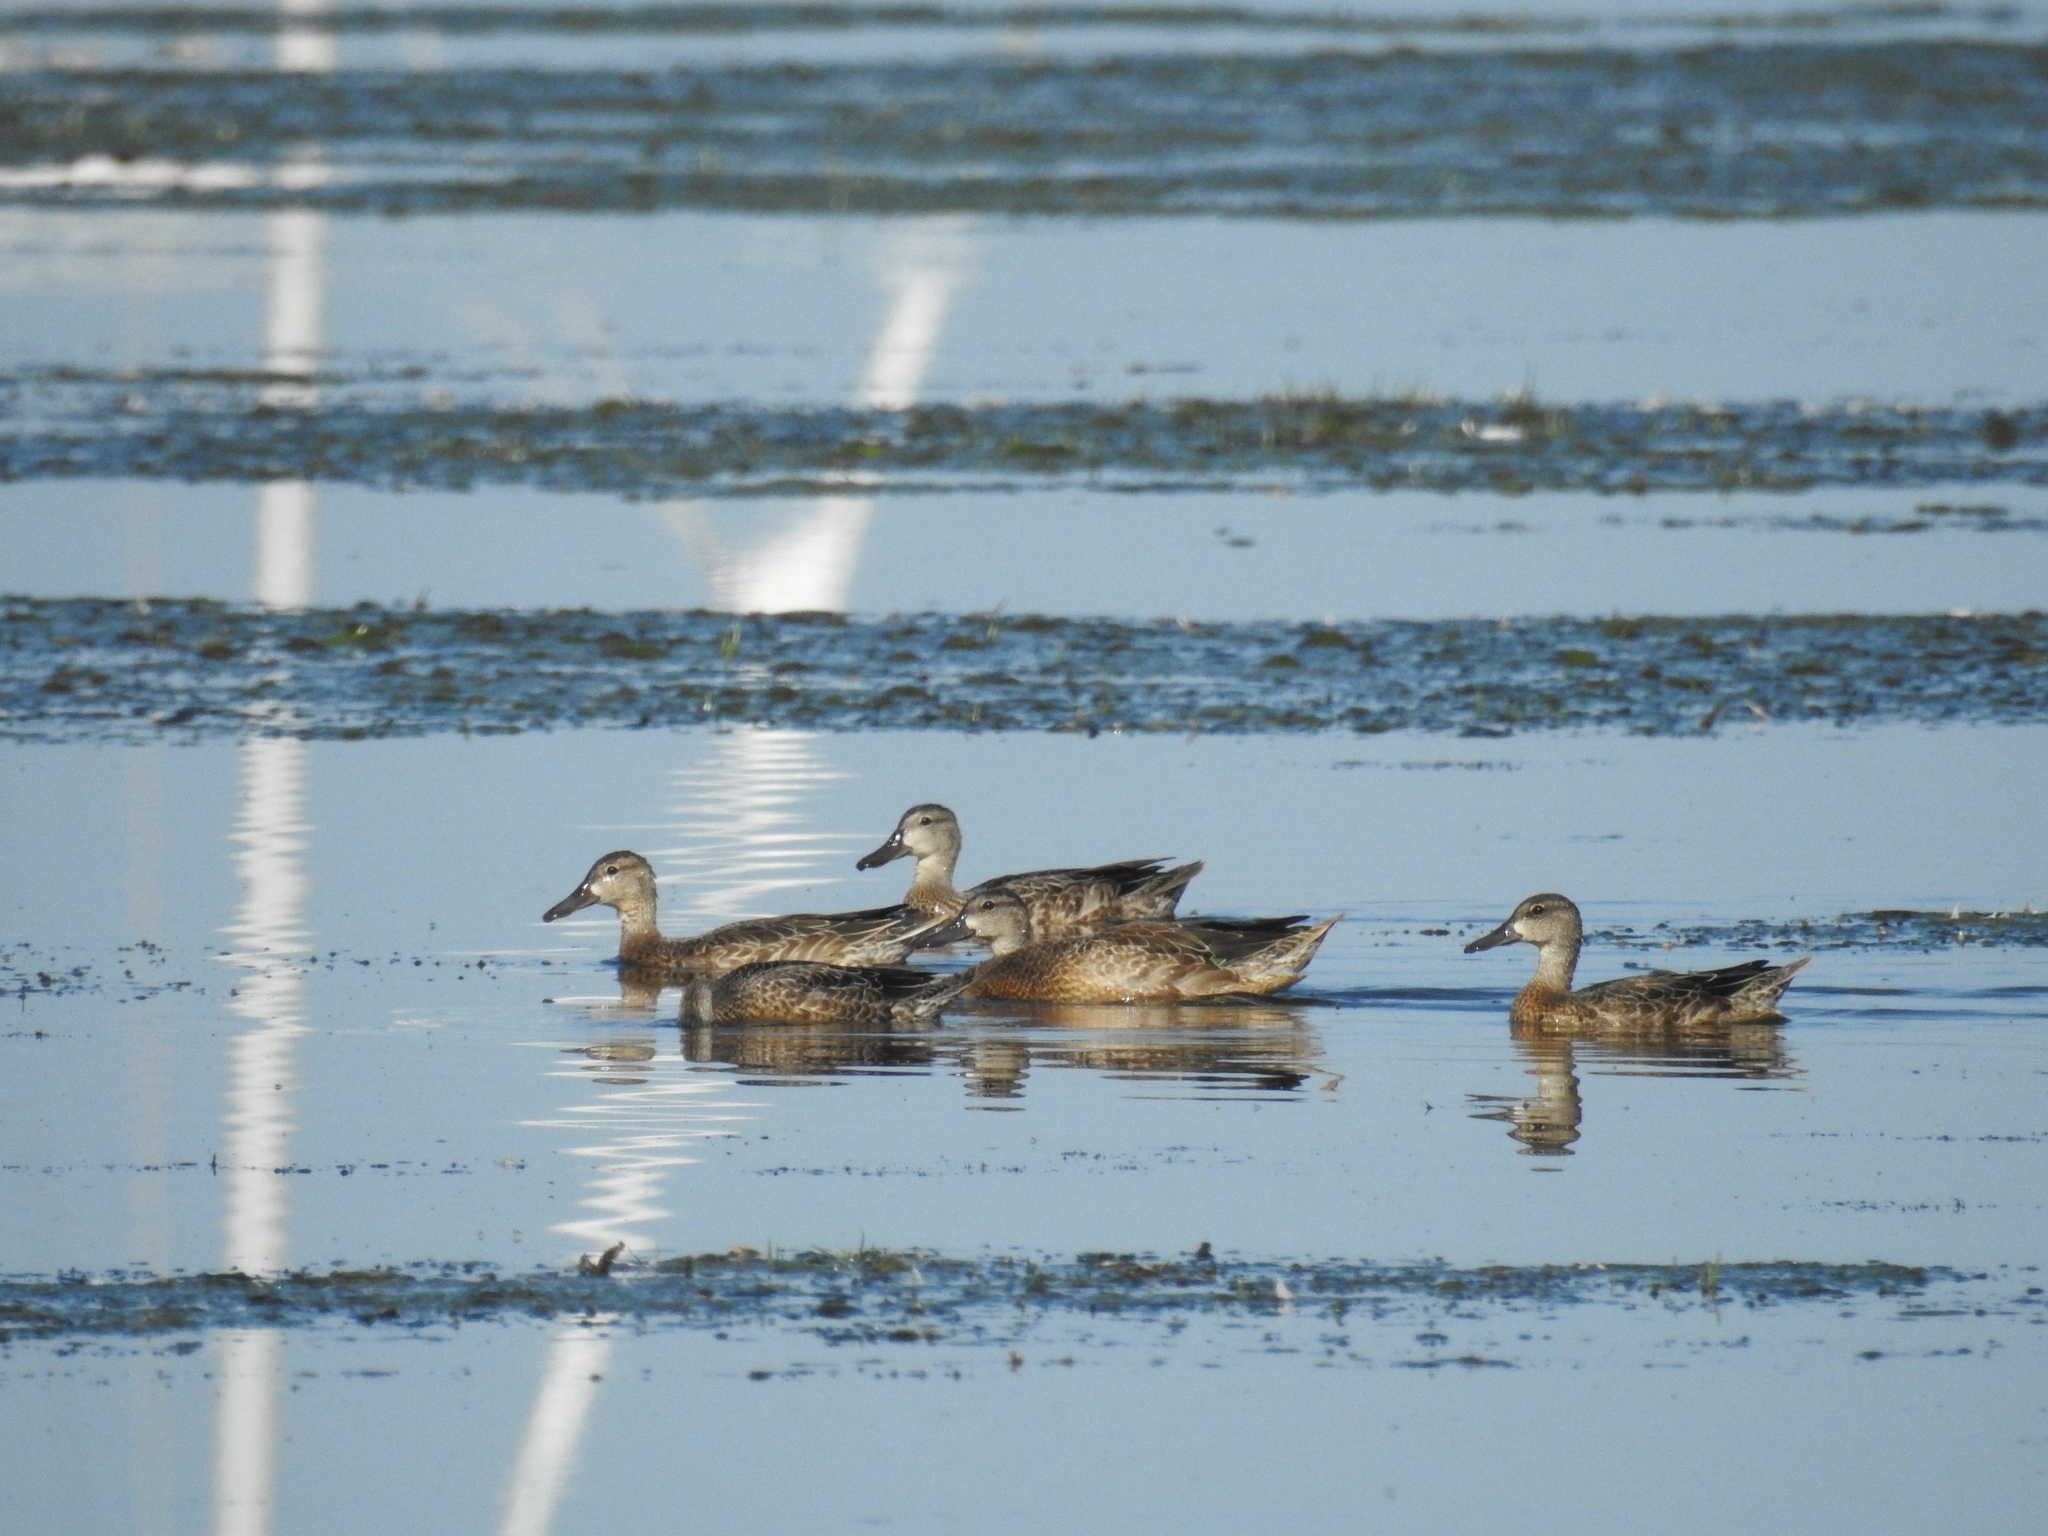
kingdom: Animalia
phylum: Chordata
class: Aves
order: Anseriformes
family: Anatidae
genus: Spatula
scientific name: Spatula discors
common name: Blue-winged teal
